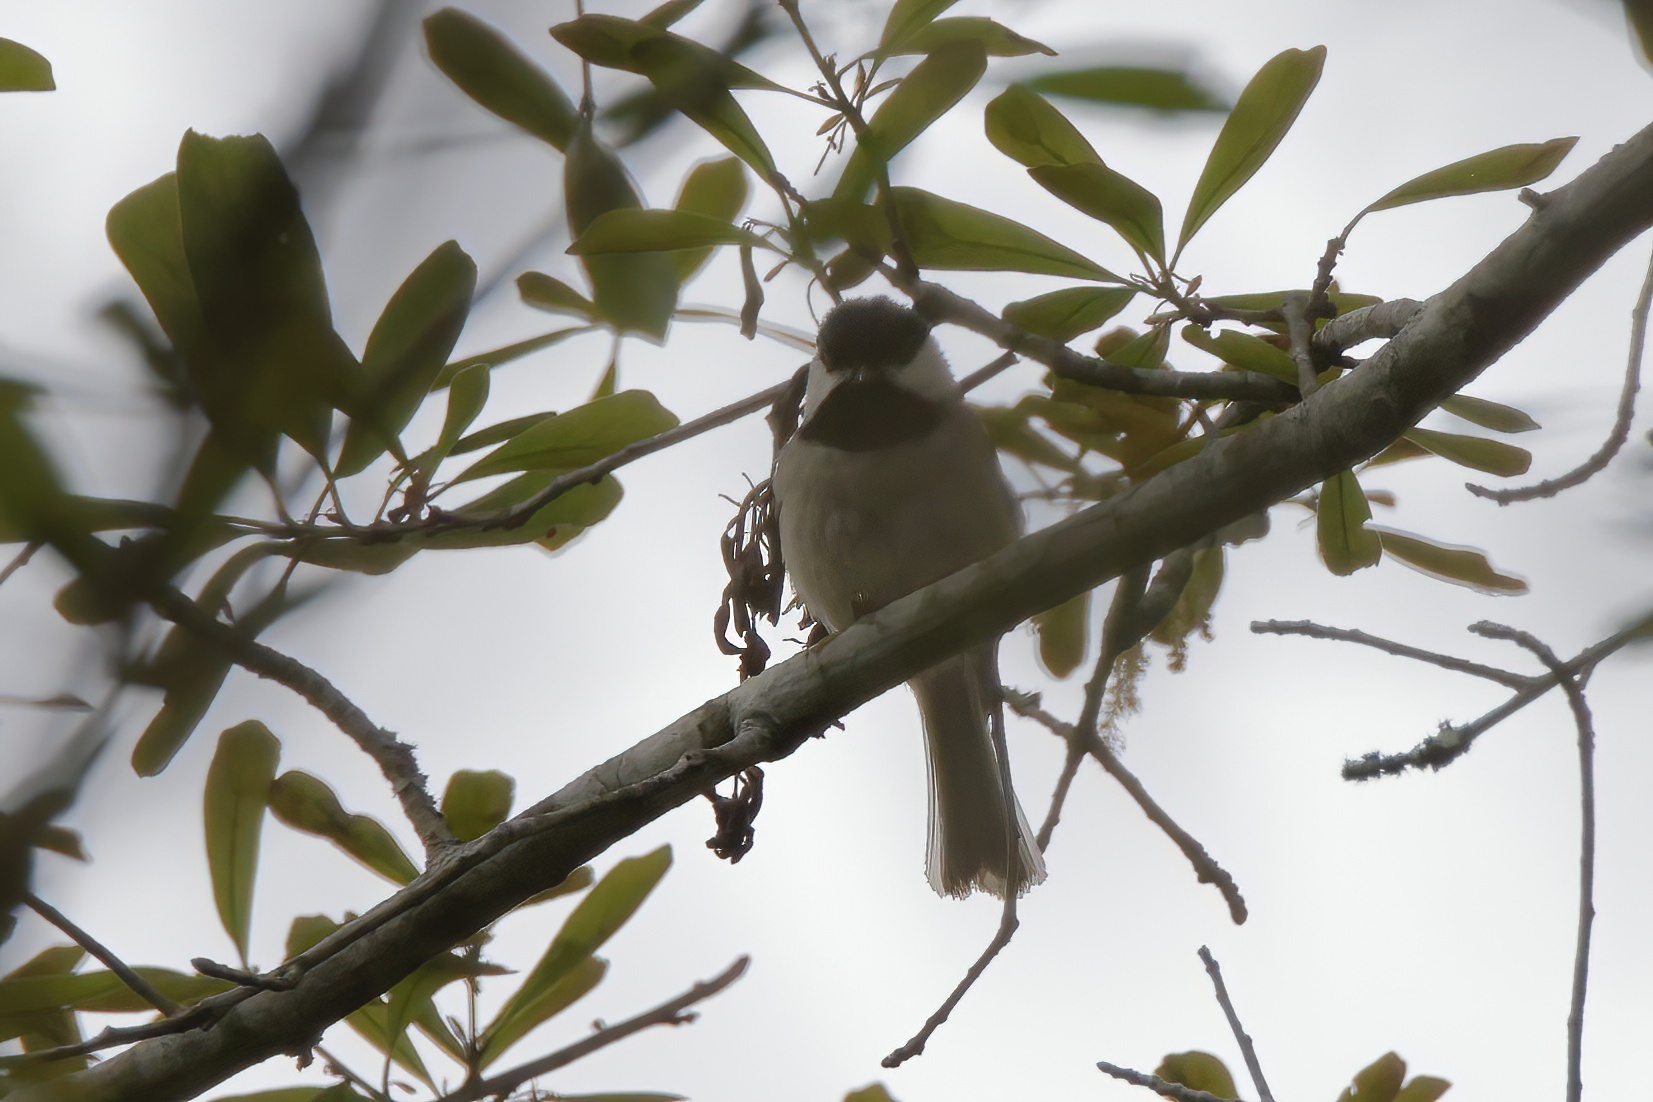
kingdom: Animalia
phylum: Chordata
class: Aves
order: Passeriformes
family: Paridae
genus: Poecile
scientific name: Poecile carolinensis
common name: Carolina chickadee
